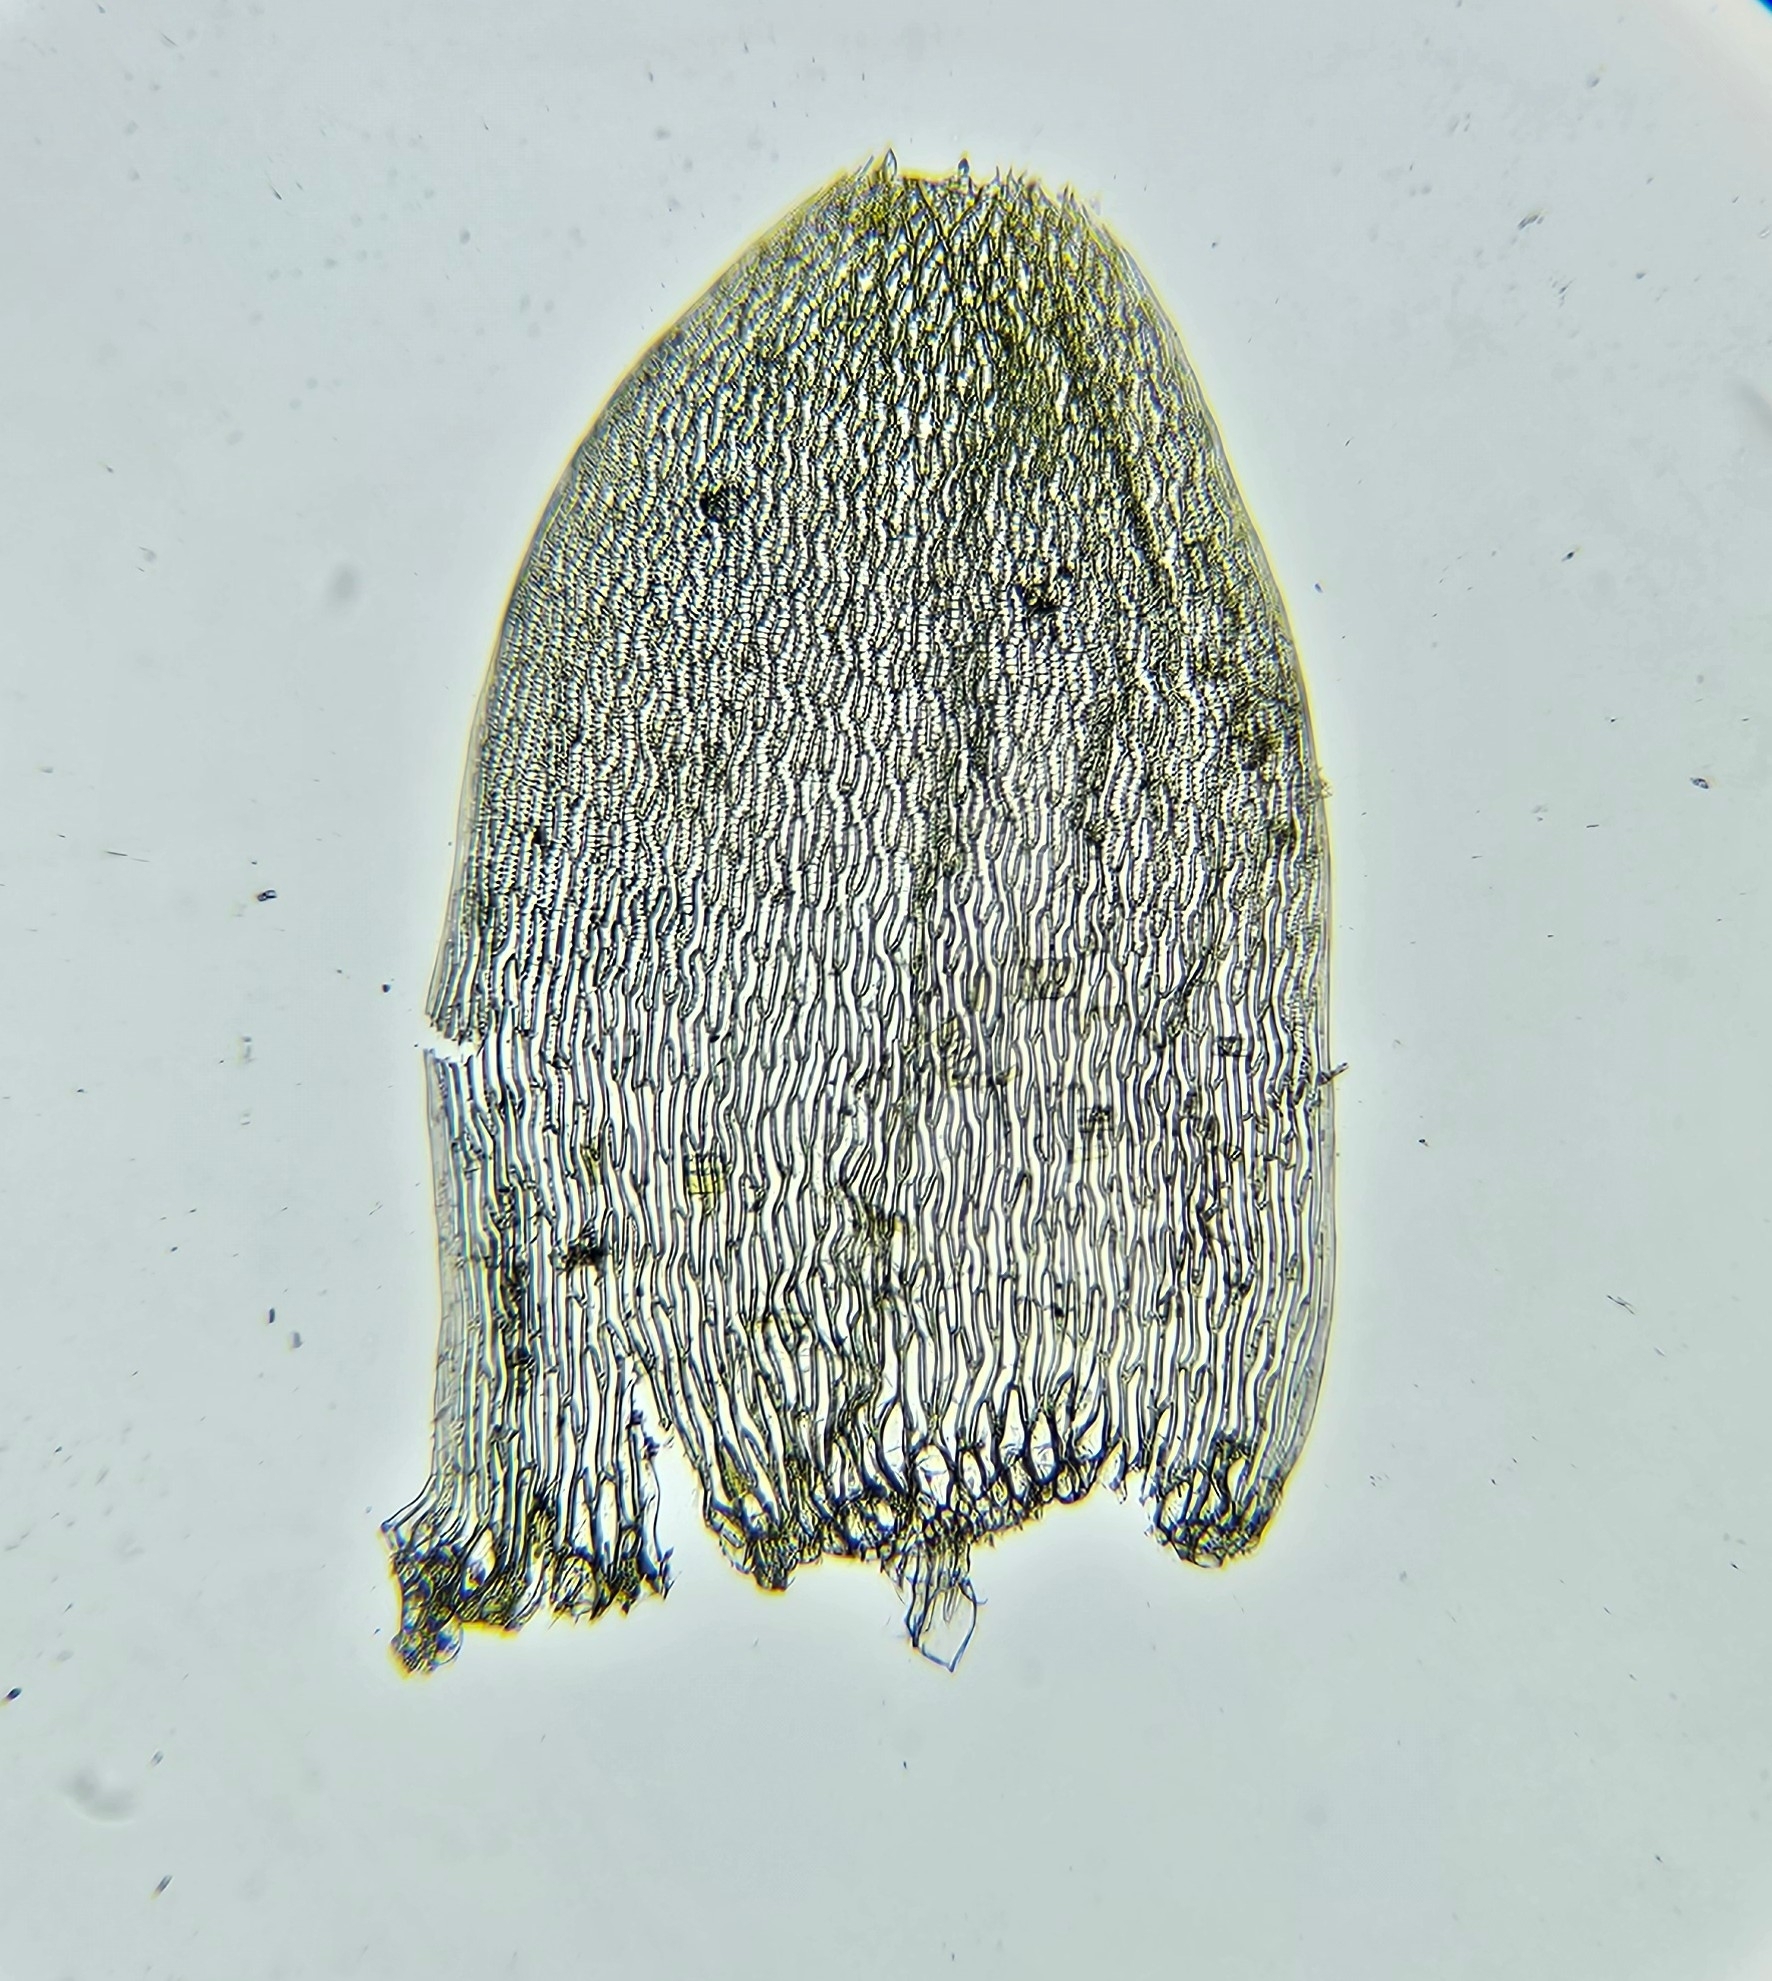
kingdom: Plantae
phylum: Bryophyta
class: Sphagnopsida
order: Sphagnales
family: Sphagnaceae
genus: Sphagnum
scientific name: Sphagnum denticulatum
